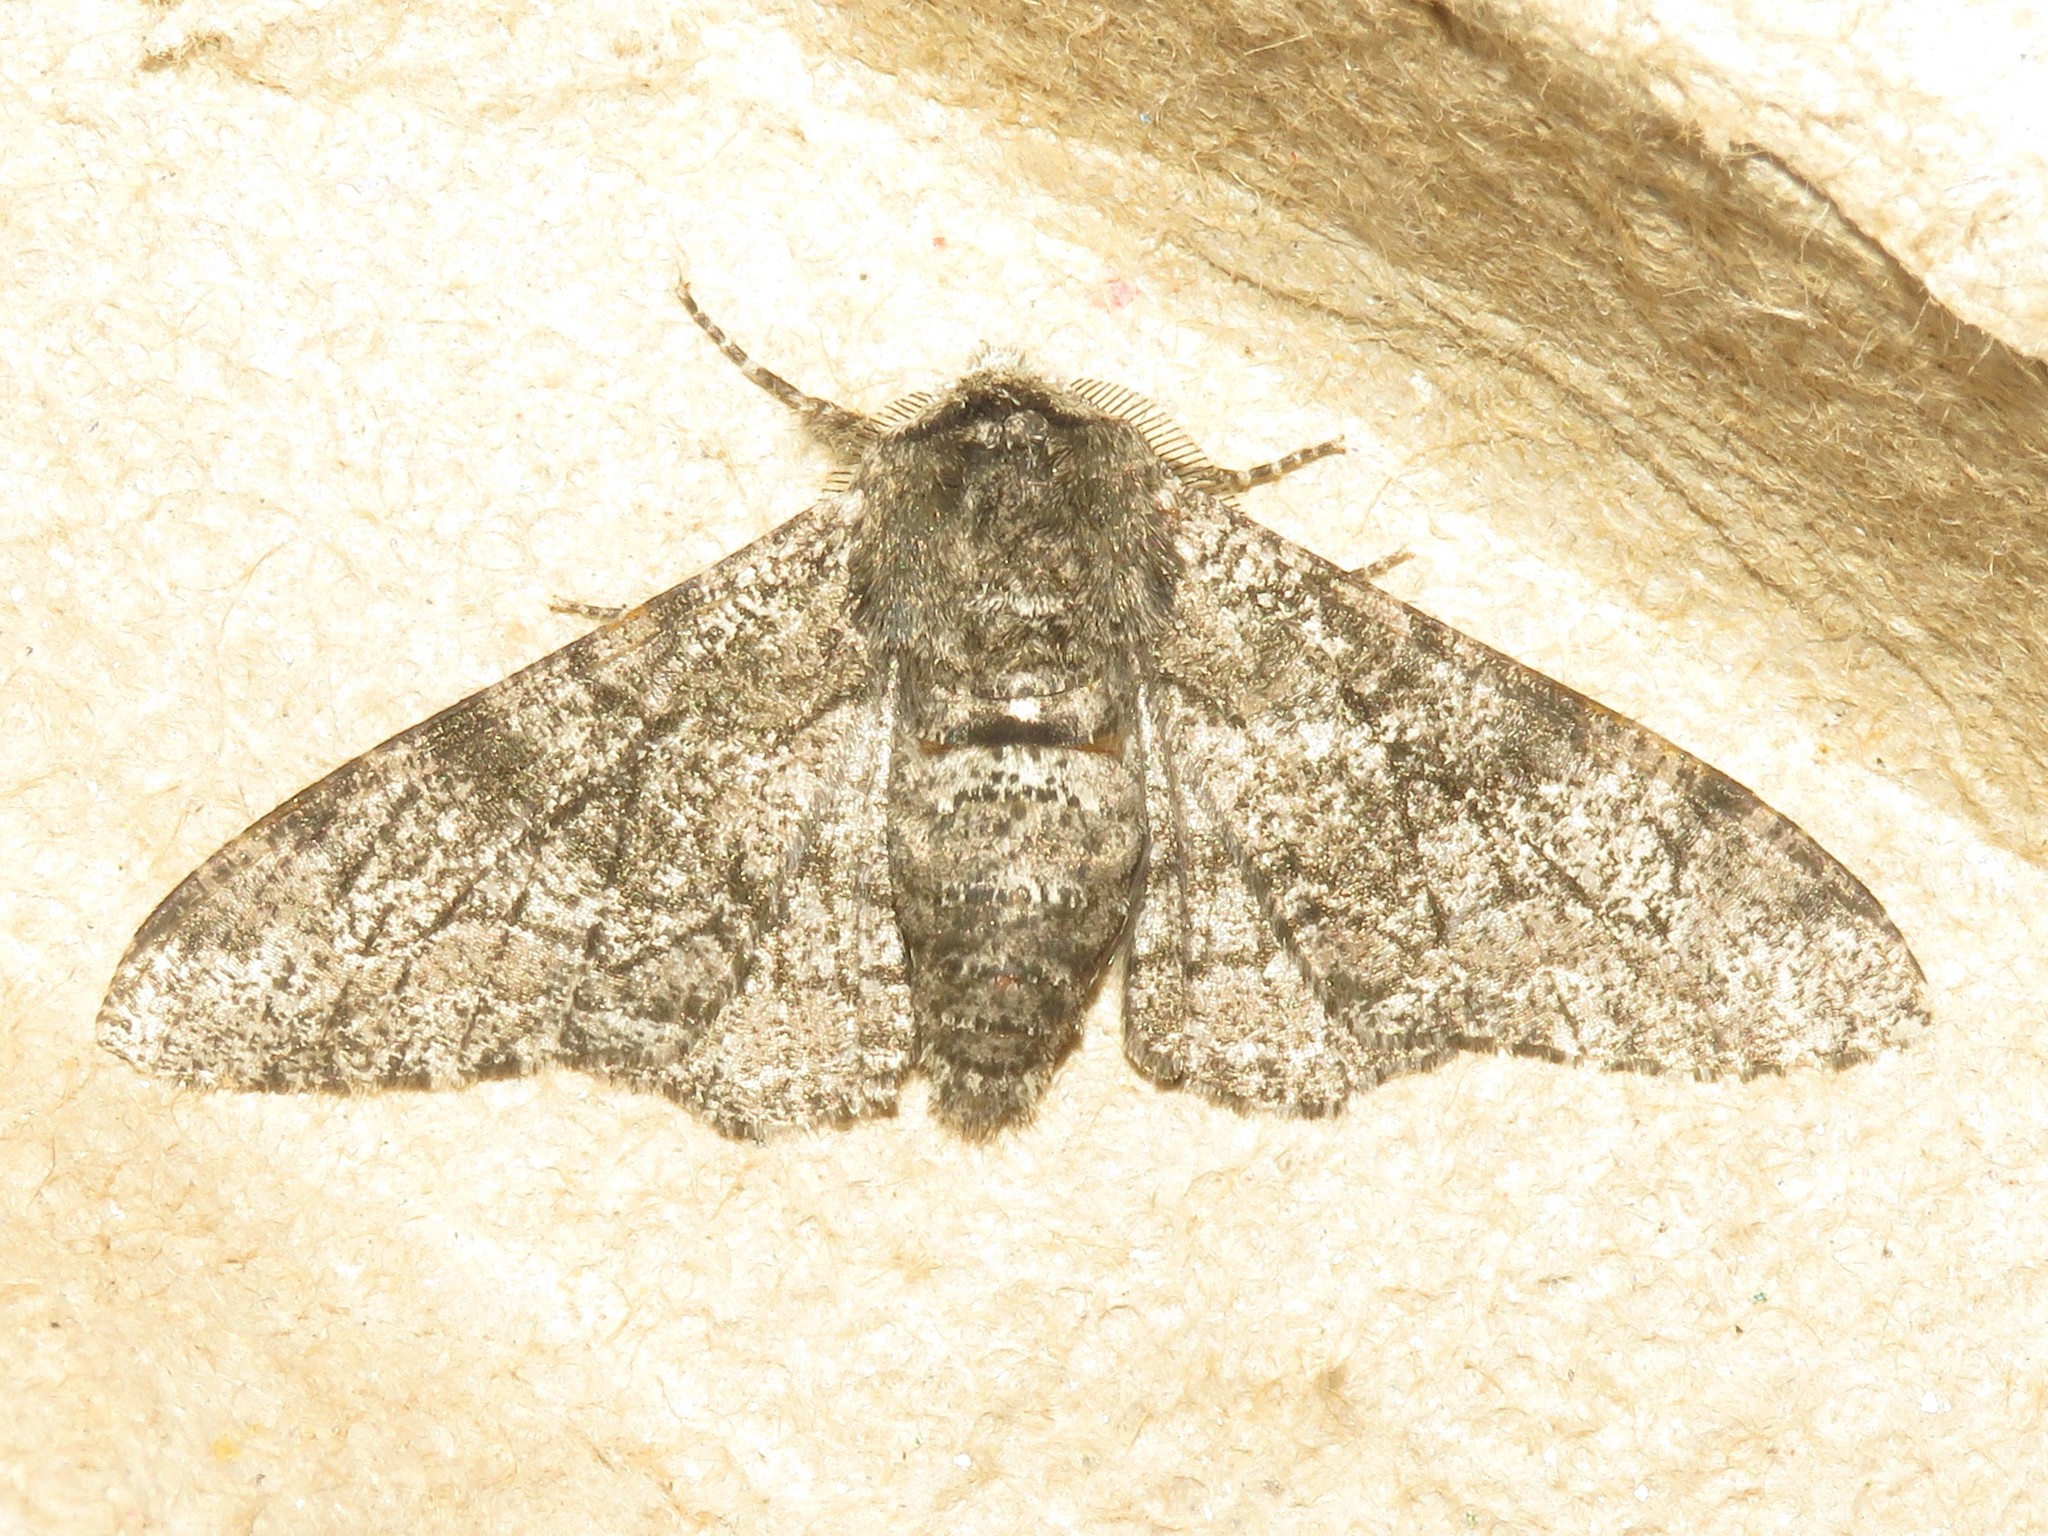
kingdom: Animalia
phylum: Arthropoda
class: Insecta
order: Lepidoptera
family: Geometridae
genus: Biston
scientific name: Biston betularia
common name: Peppered moth
